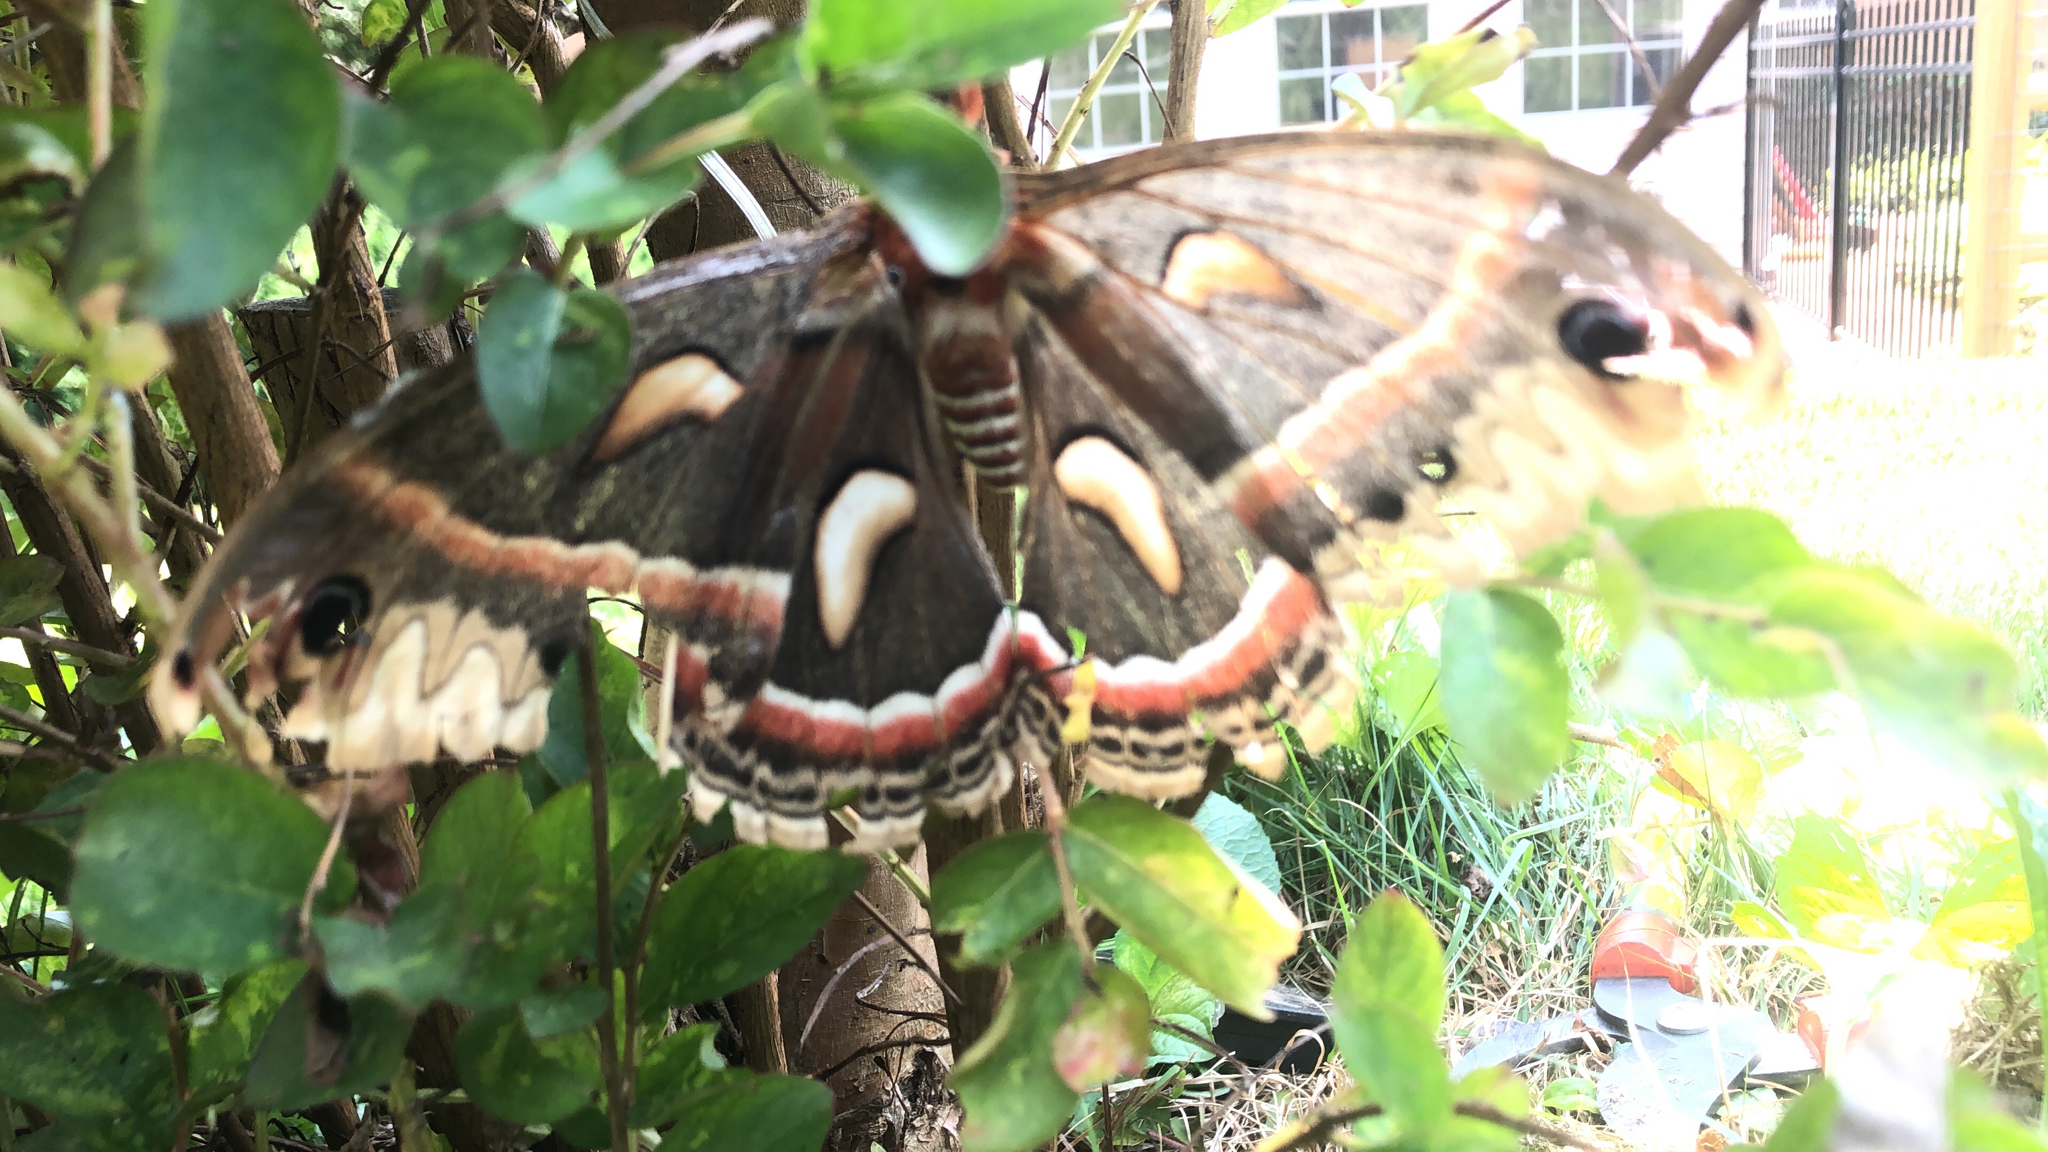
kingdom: Animalia
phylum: Arthropoda
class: Insecta
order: Lepidoptera
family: Saturniidae
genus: Hyalophora
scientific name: Hyalophora cecropia
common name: Cecropia silkmoth
